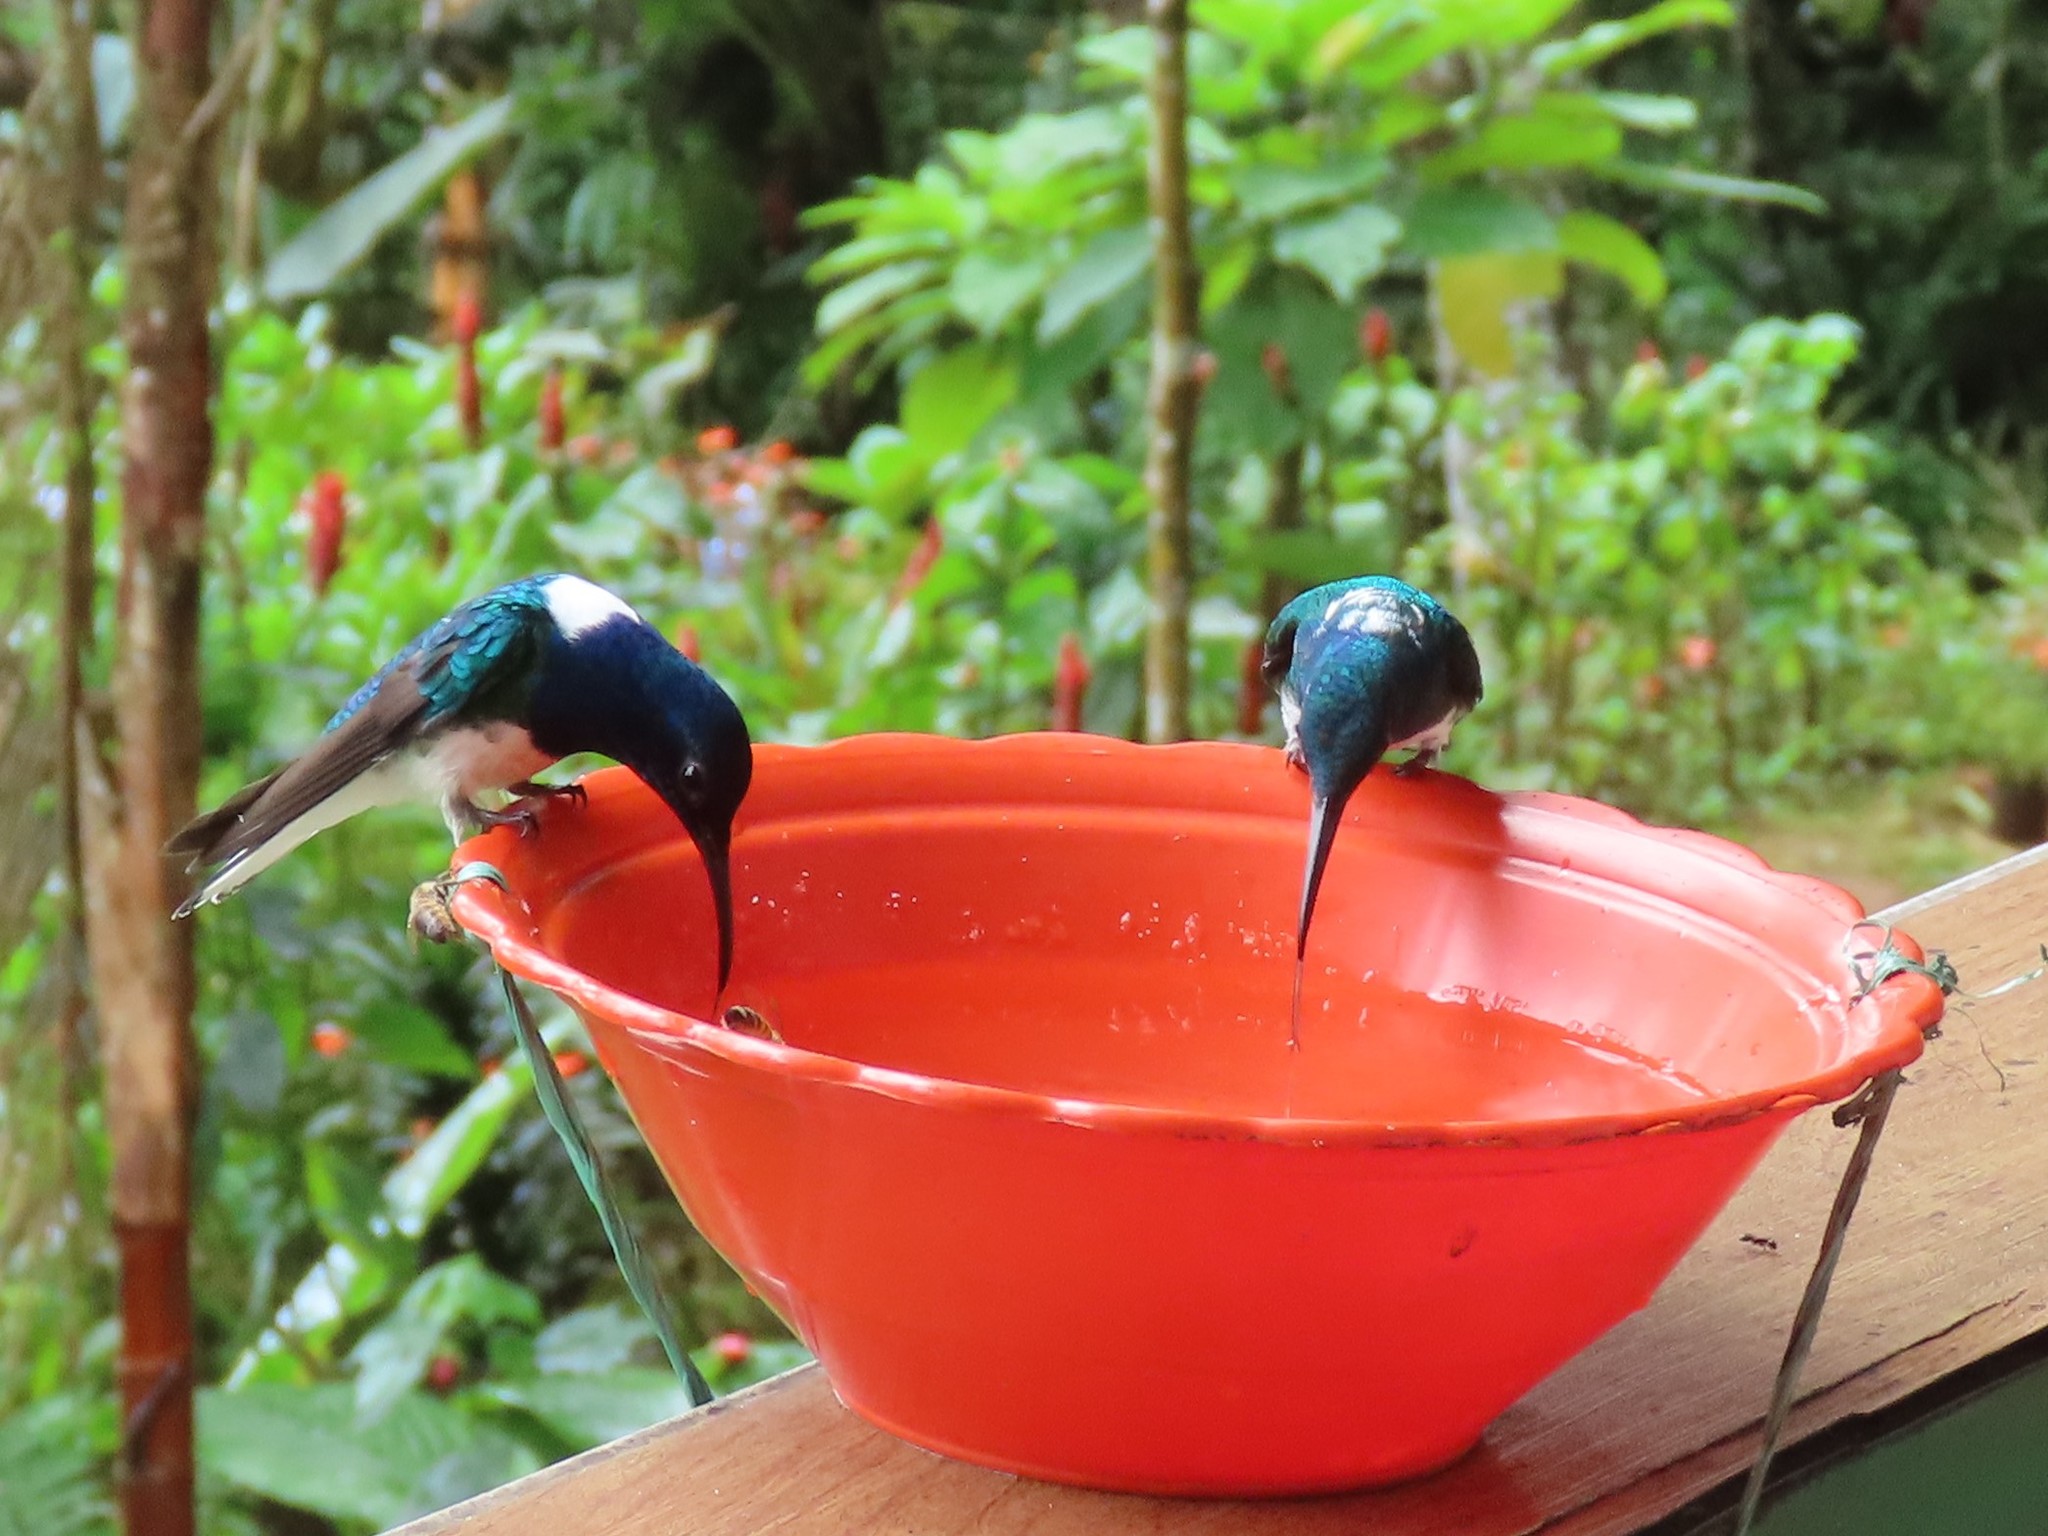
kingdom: Animalia
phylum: Chordata
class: Aves
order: Apodiformes
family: Trochilidae
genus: Florisuga
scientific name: Florisuga mellivora
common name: White-necked jacobin
